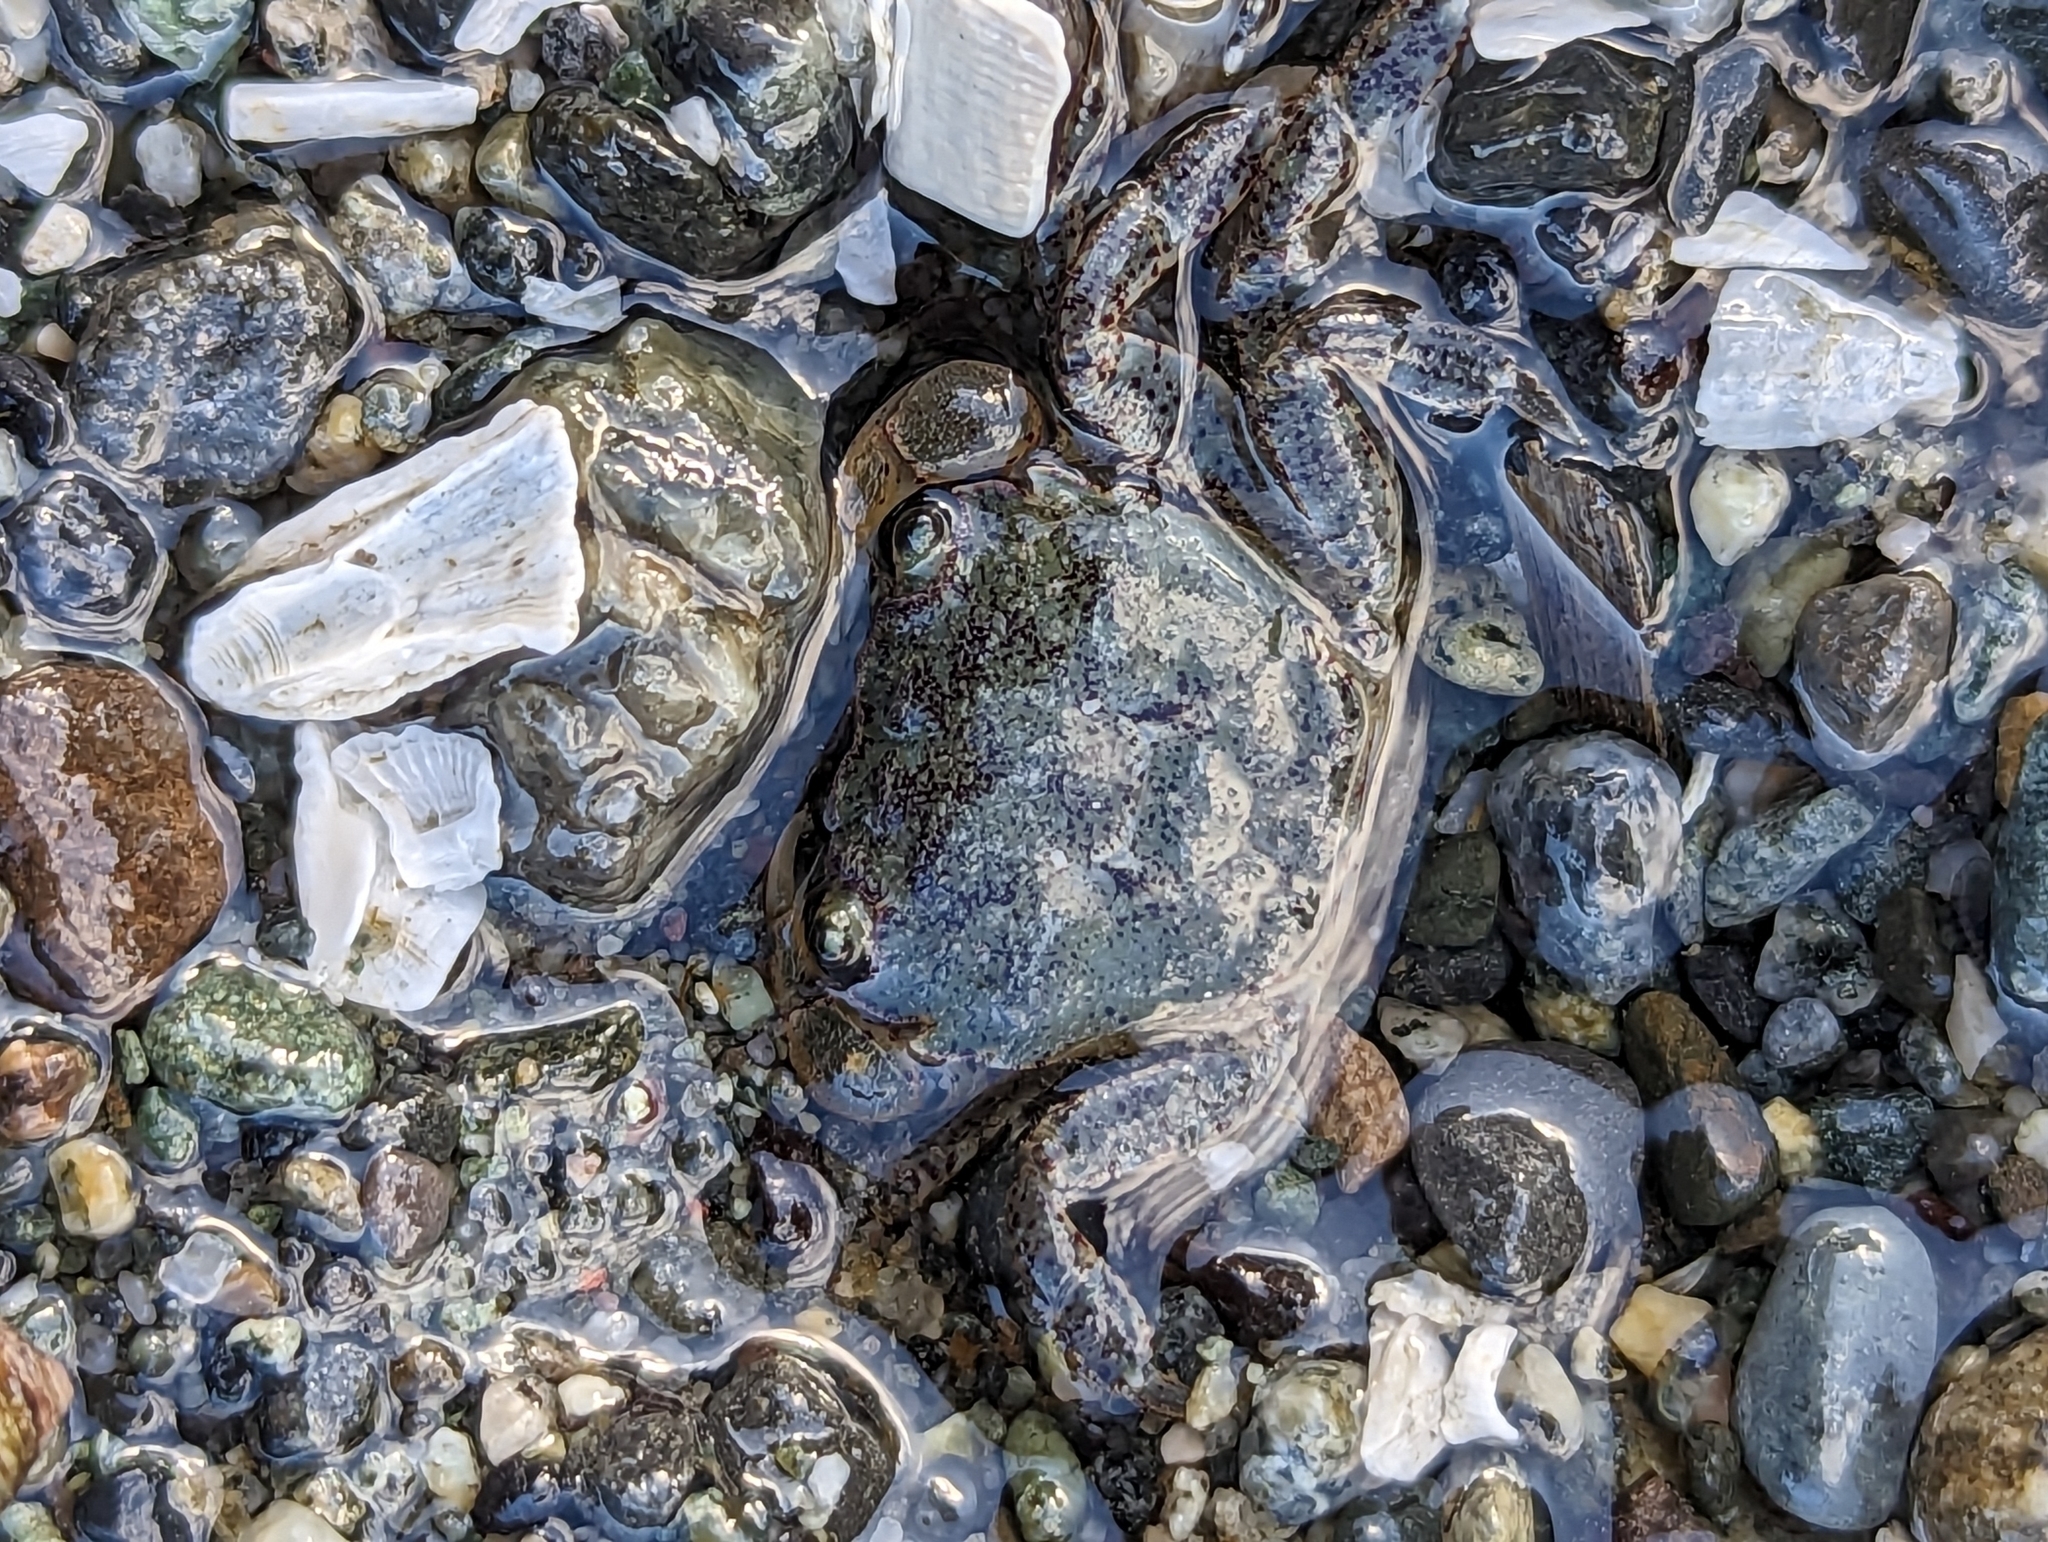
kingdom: Animalia
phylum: Arthropoda
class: Malacostraca
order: Decapoda
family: Varunidae
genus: Hemigrapsus
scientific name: Hemigrapsus oregonensis
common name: Yellow shore crab
